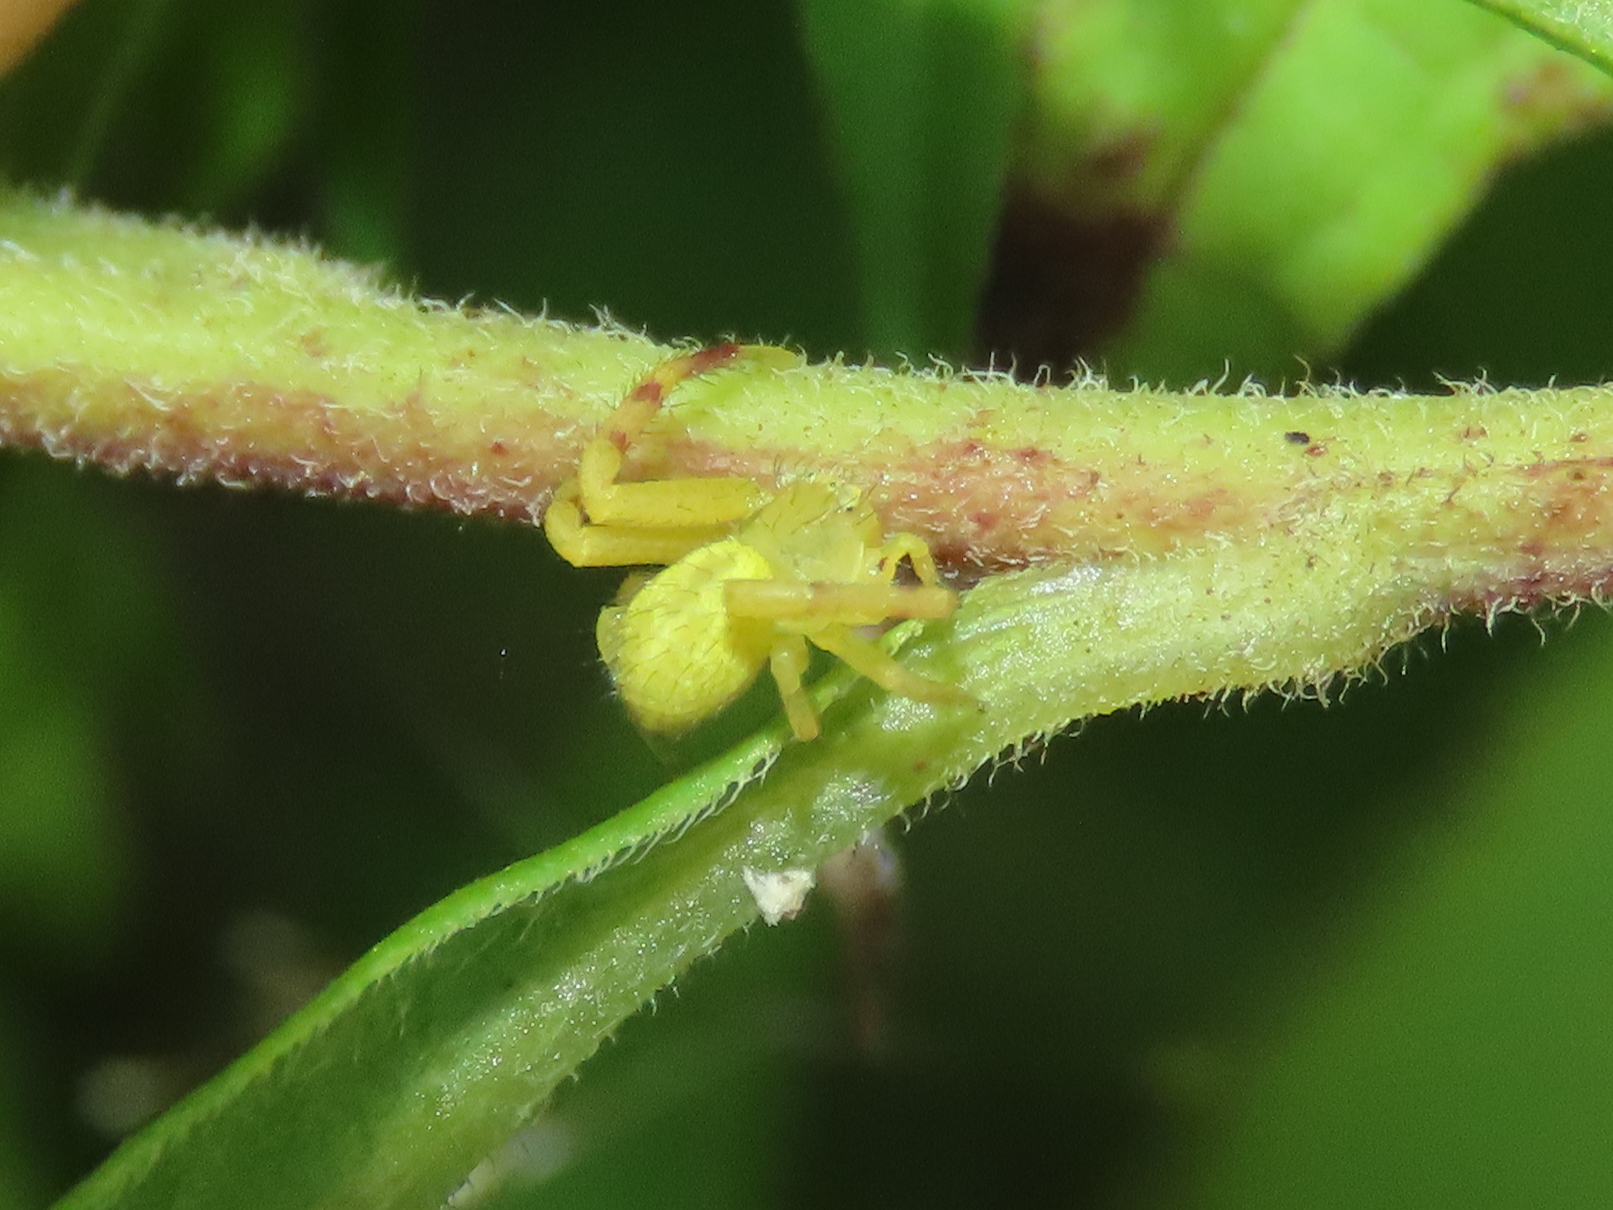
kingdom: Animalia
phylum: Arthropoda
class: Arachnida
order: Araneae
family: Thomisidae
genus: Mecaphesa
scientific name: Mecaphesa asperata
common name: Crab spiders
